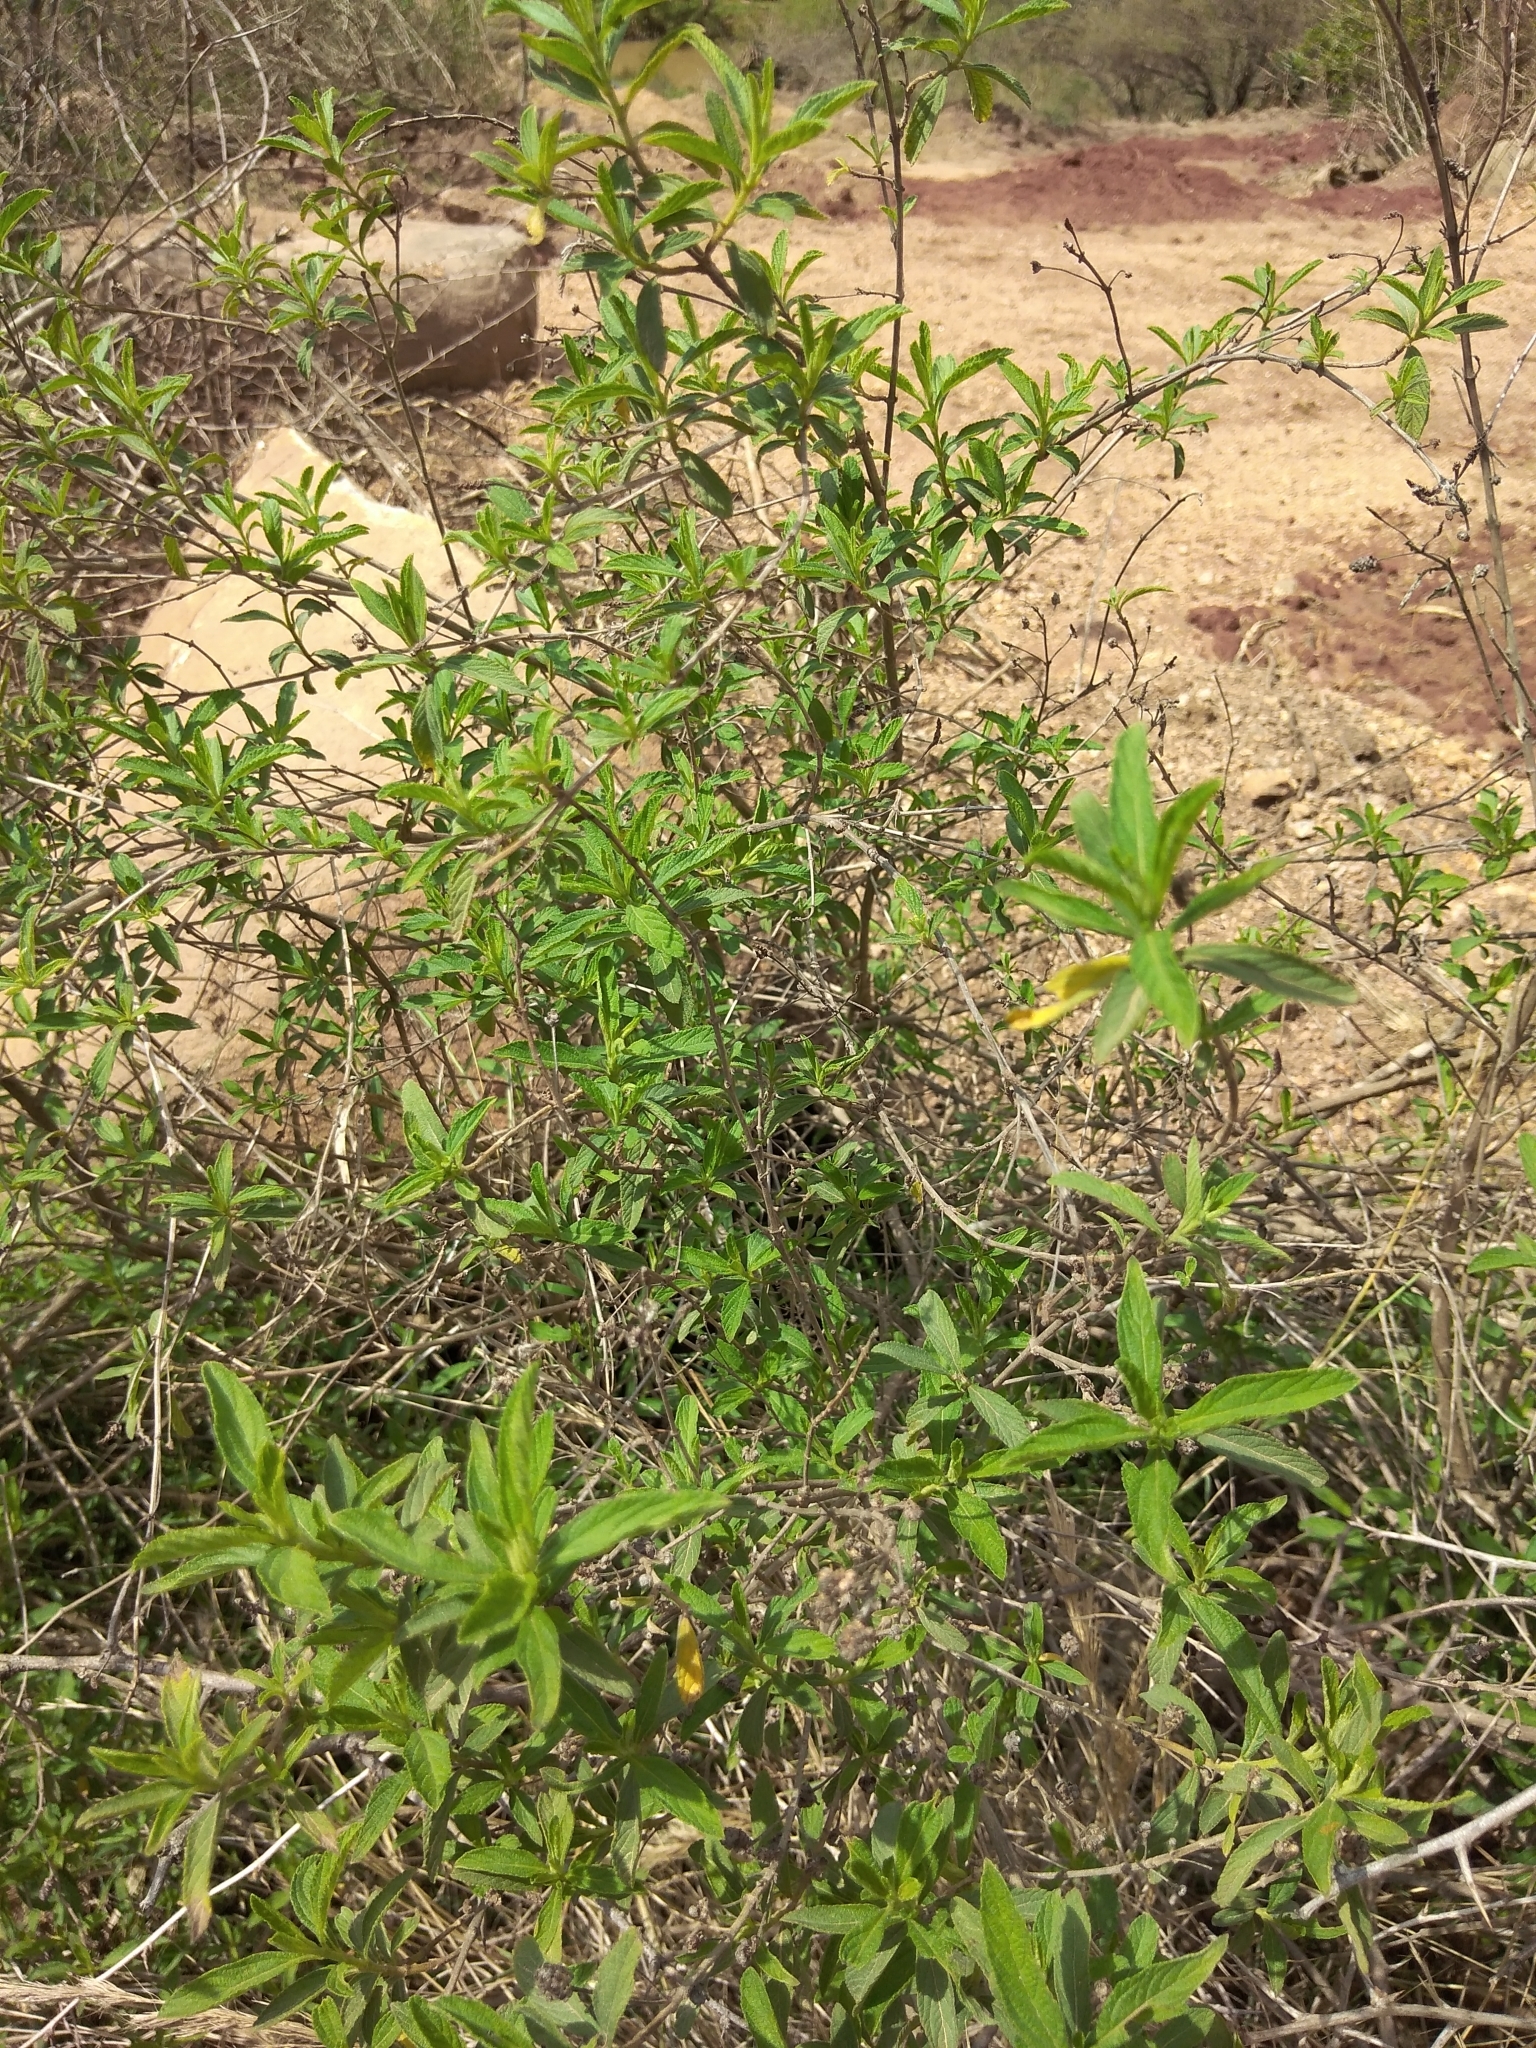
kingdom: Plantae
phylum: Tracheophyta
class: Magnoliopsida
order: Lamiales
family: Verbenaceae
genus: Lippia
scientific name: Lippia javanica
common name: Lemonbush
